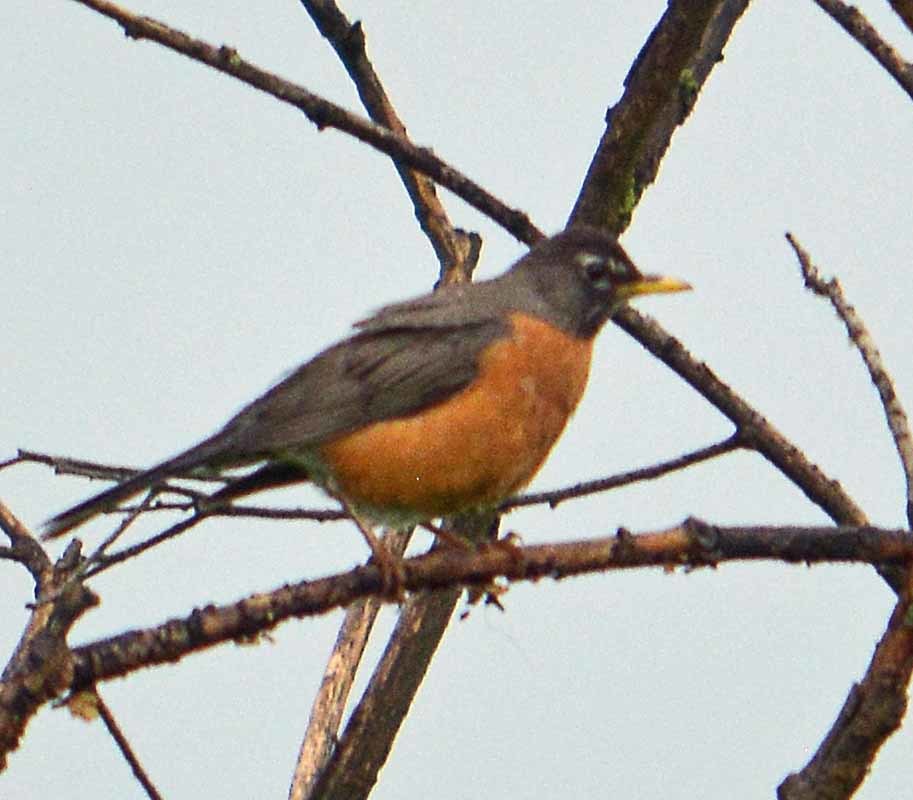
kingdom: Animalia
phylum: Chordata
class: Aves
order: Passeriformes
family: Turdidae
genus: Turdus
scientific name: Turdus migratorius
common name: American robin
